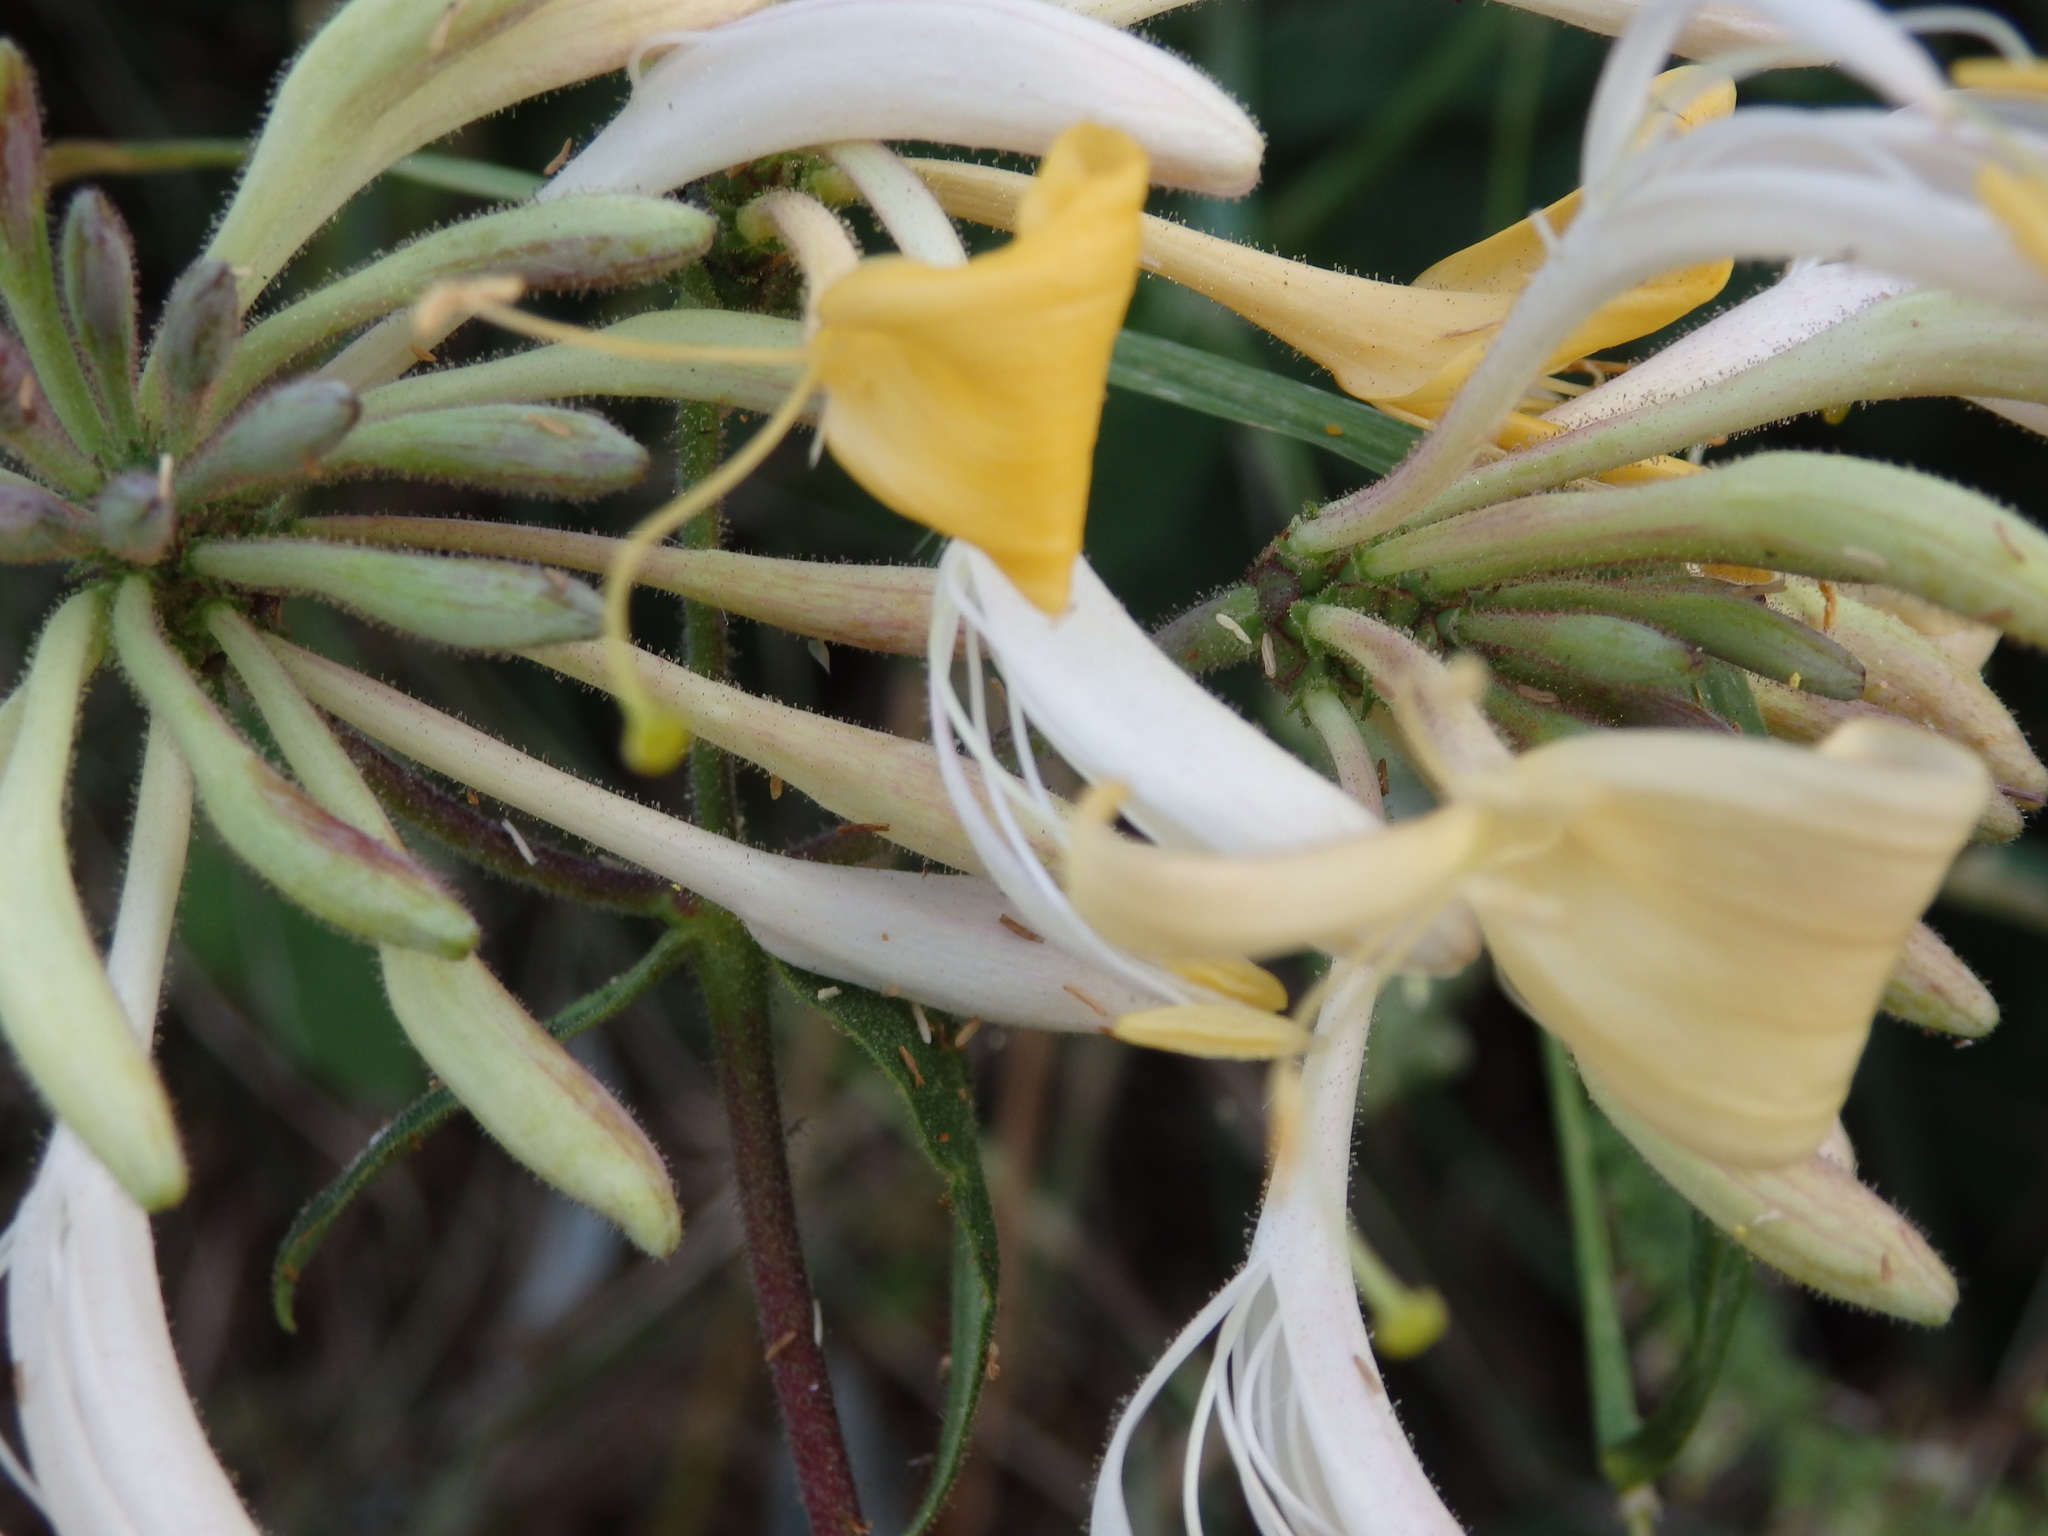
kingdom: Plantae
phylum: Tracheophyta
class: Magnoliopsida
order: Dipsacales
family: Caprifoliaceae
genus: Lonicera
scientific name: Lonicera periclymenum
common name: European honeysuckle
